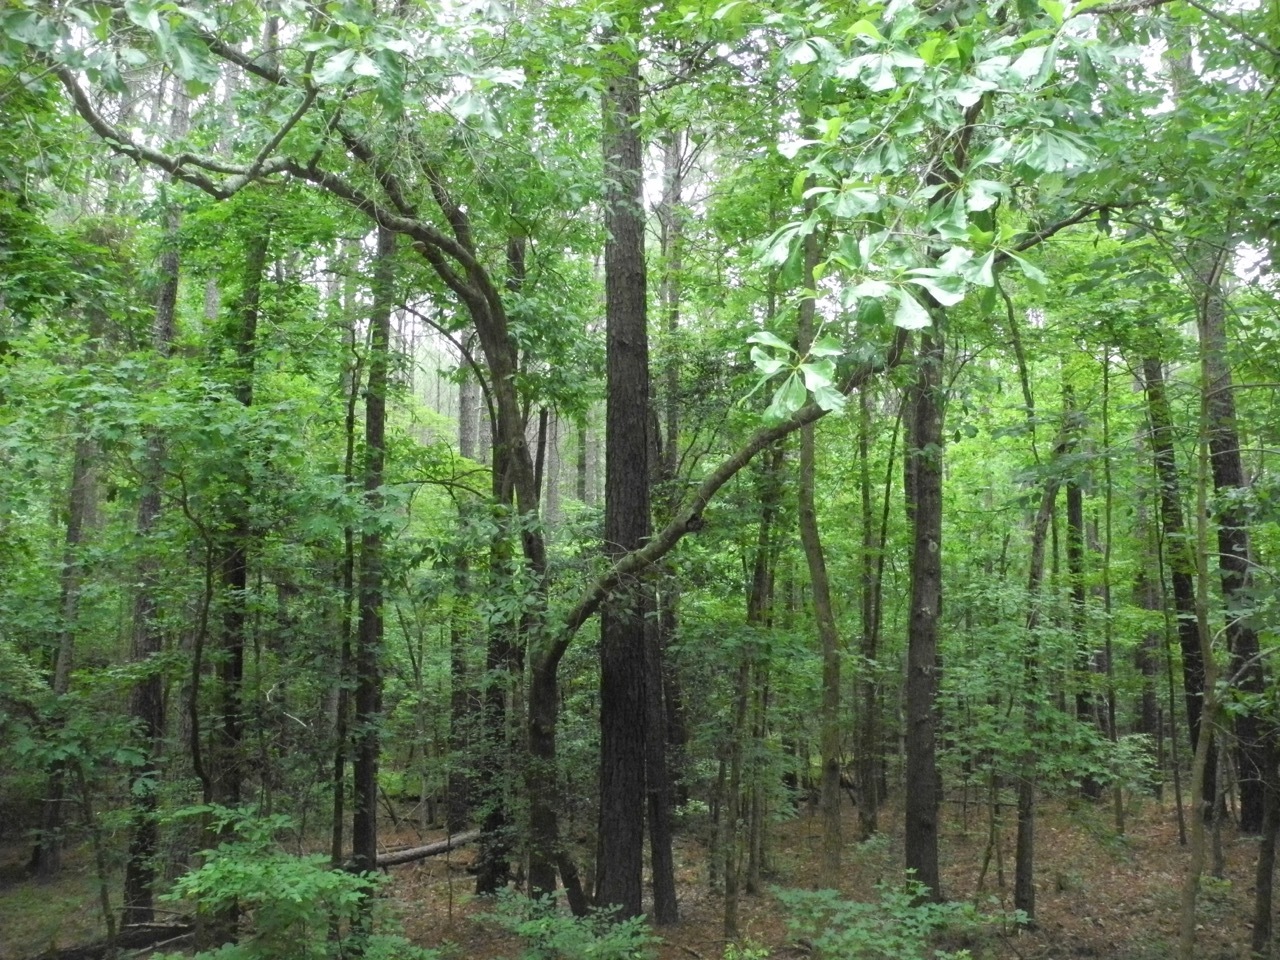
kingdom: Plantae
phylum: Tracheophyta
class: Magnoliopsida
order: Fagales
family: Fagaceae
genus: Quercus
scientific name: Quercus nigra
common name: Water oak
